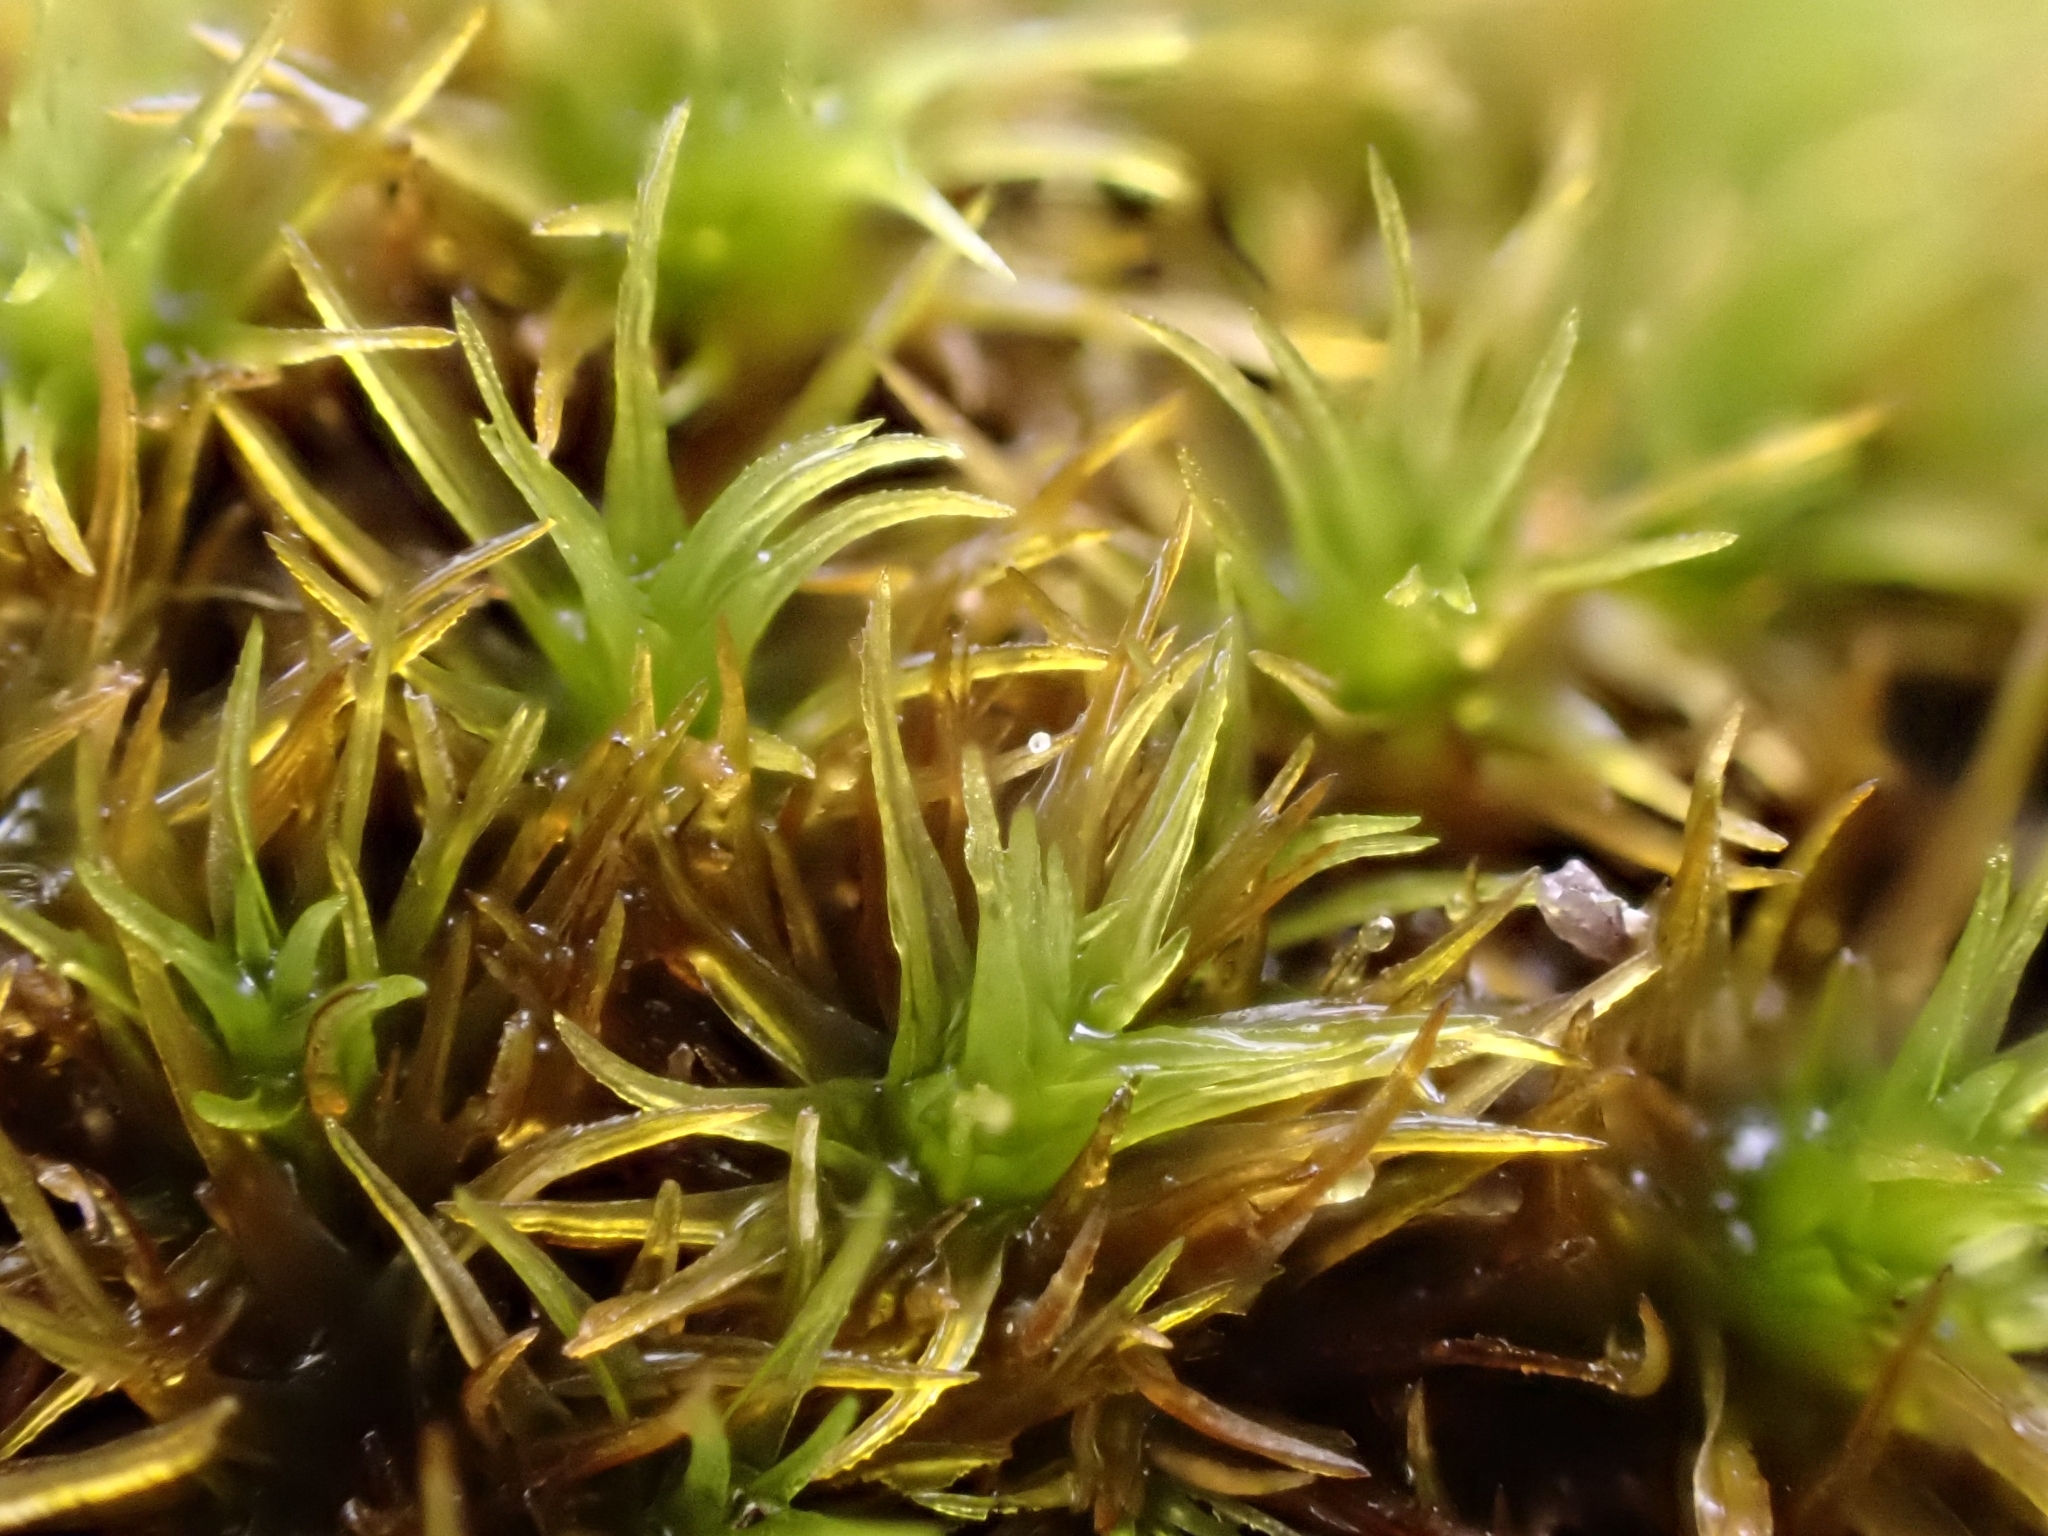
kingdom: Plantae
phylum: Bryophyta
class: Bryopsida
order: Grimmiales
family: Ptychomitriaceae
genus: Ptychomitrium
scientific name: Ptychomitrium polyphyllum
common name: Greater pincushion
